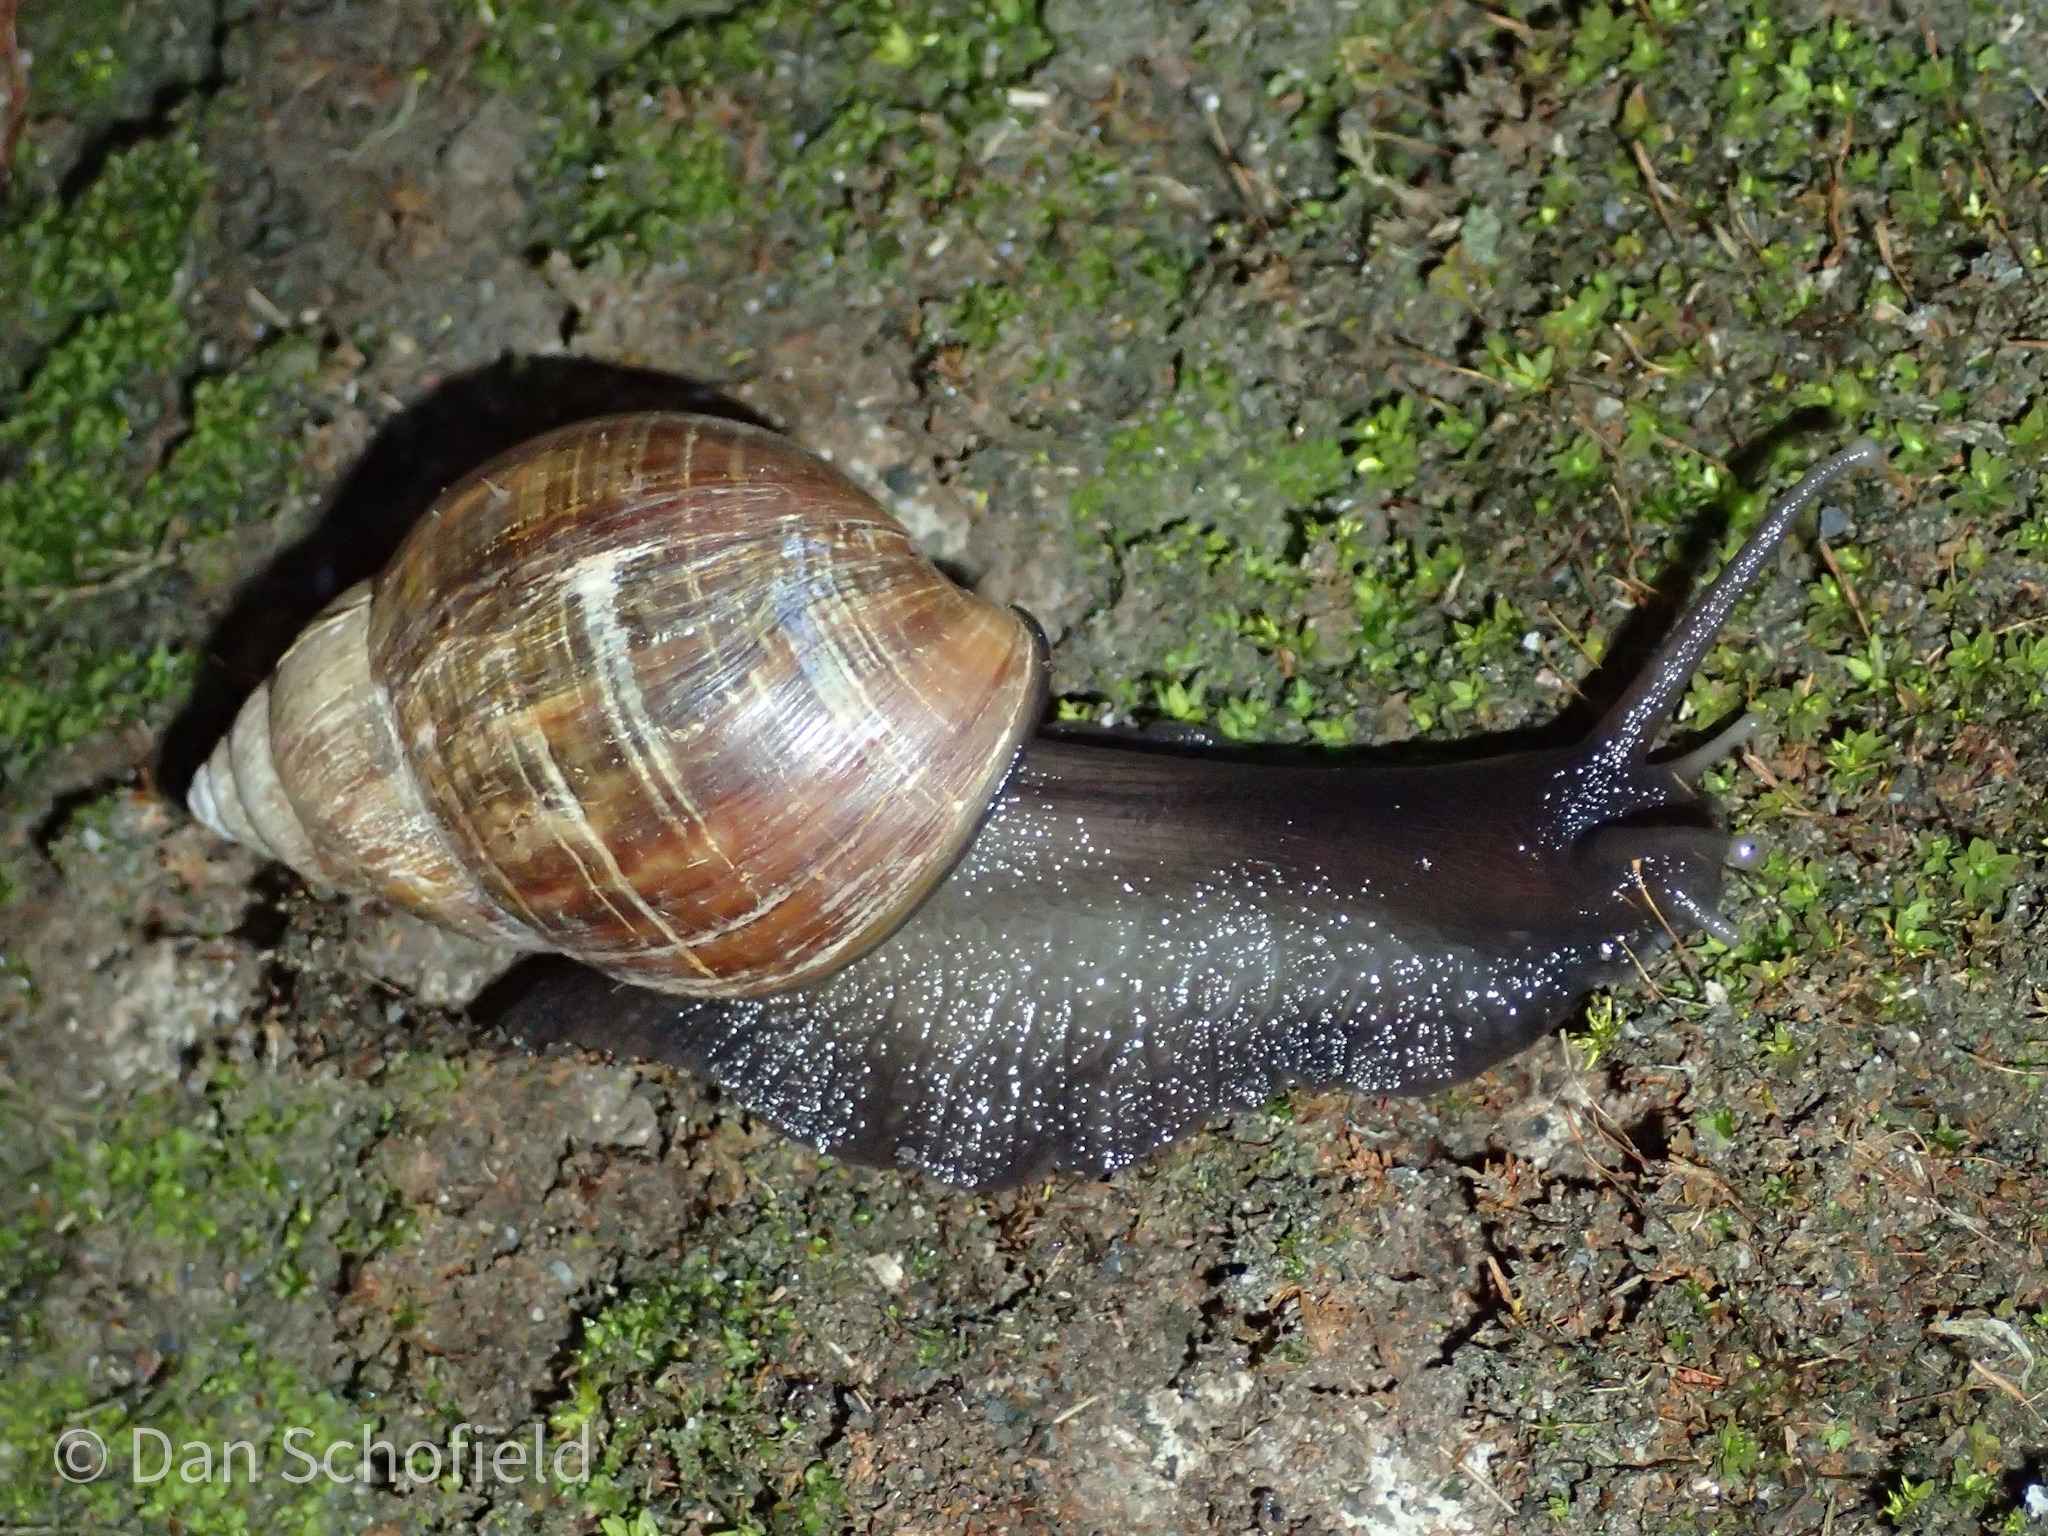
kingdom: Animalia
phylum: Mollusca
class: Gastropoda
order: Stylommatophora
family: Achatinidae
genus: Lissachatina
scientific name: Lissachatina fulica
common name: Giant african snail
